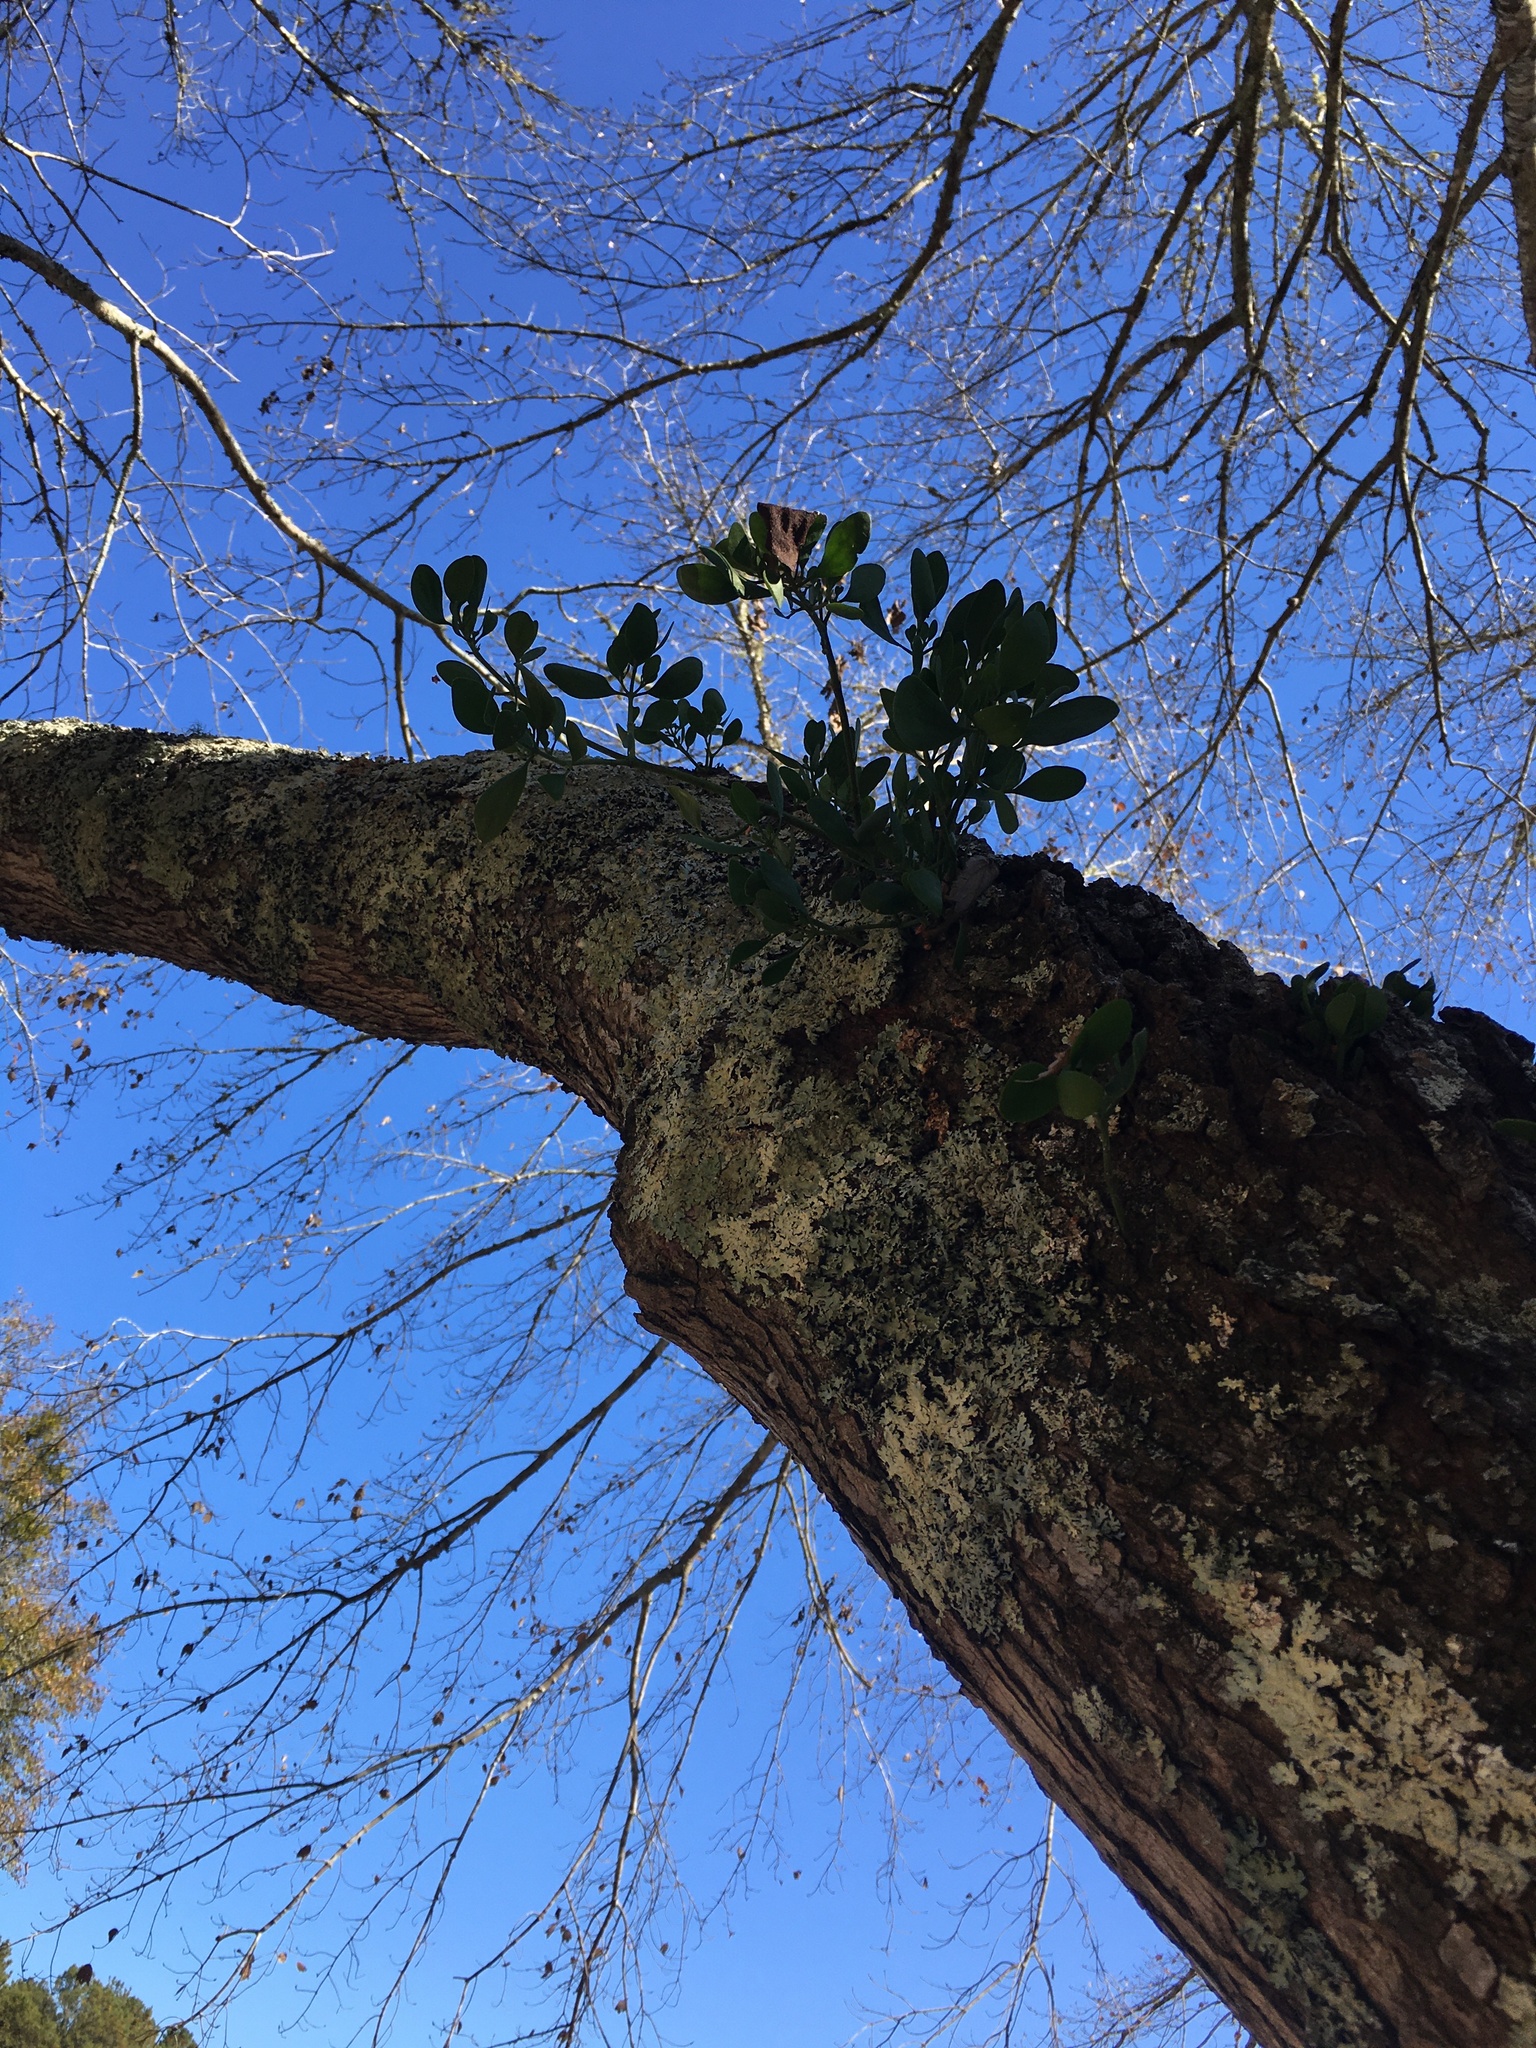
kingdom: Plantae
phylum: Tracheophyta
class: Magnoliopsida
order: Santalales
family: Viscaceae
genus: Phoradendron
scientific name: Phoradendron leucarpum
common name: Pacific mistletoe
